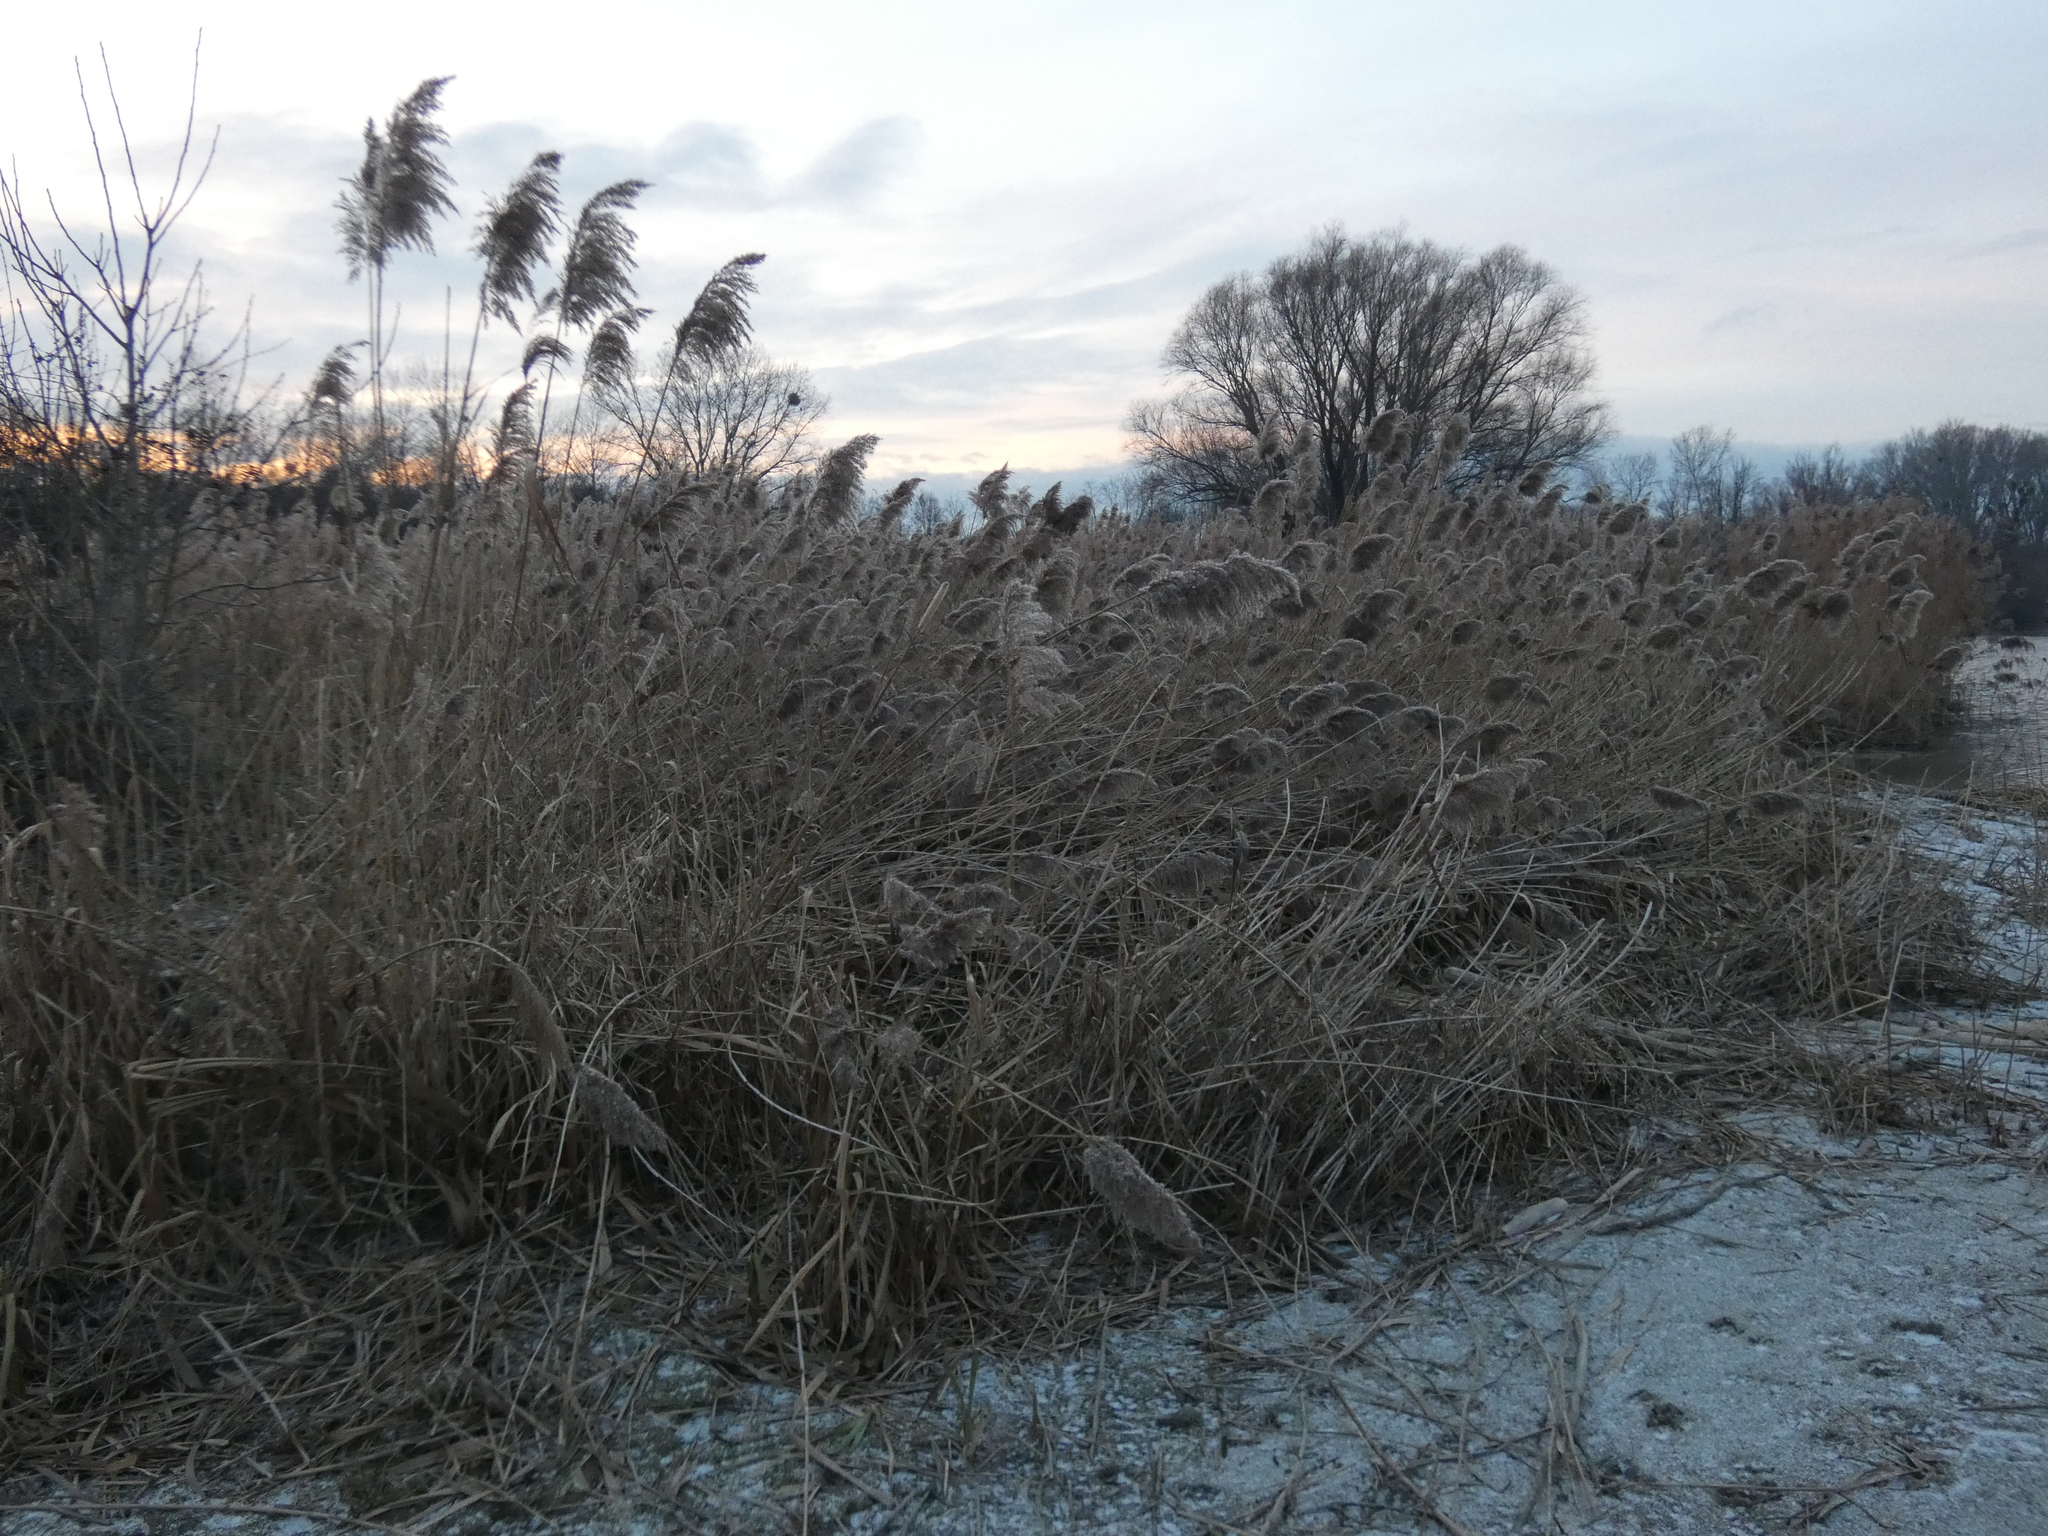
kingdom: Plantae
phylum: Tracheophyta
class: Liliopsida
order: Poales
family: Poaceae
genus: Phragmites
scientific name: Phragmites australis
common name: Common reed
